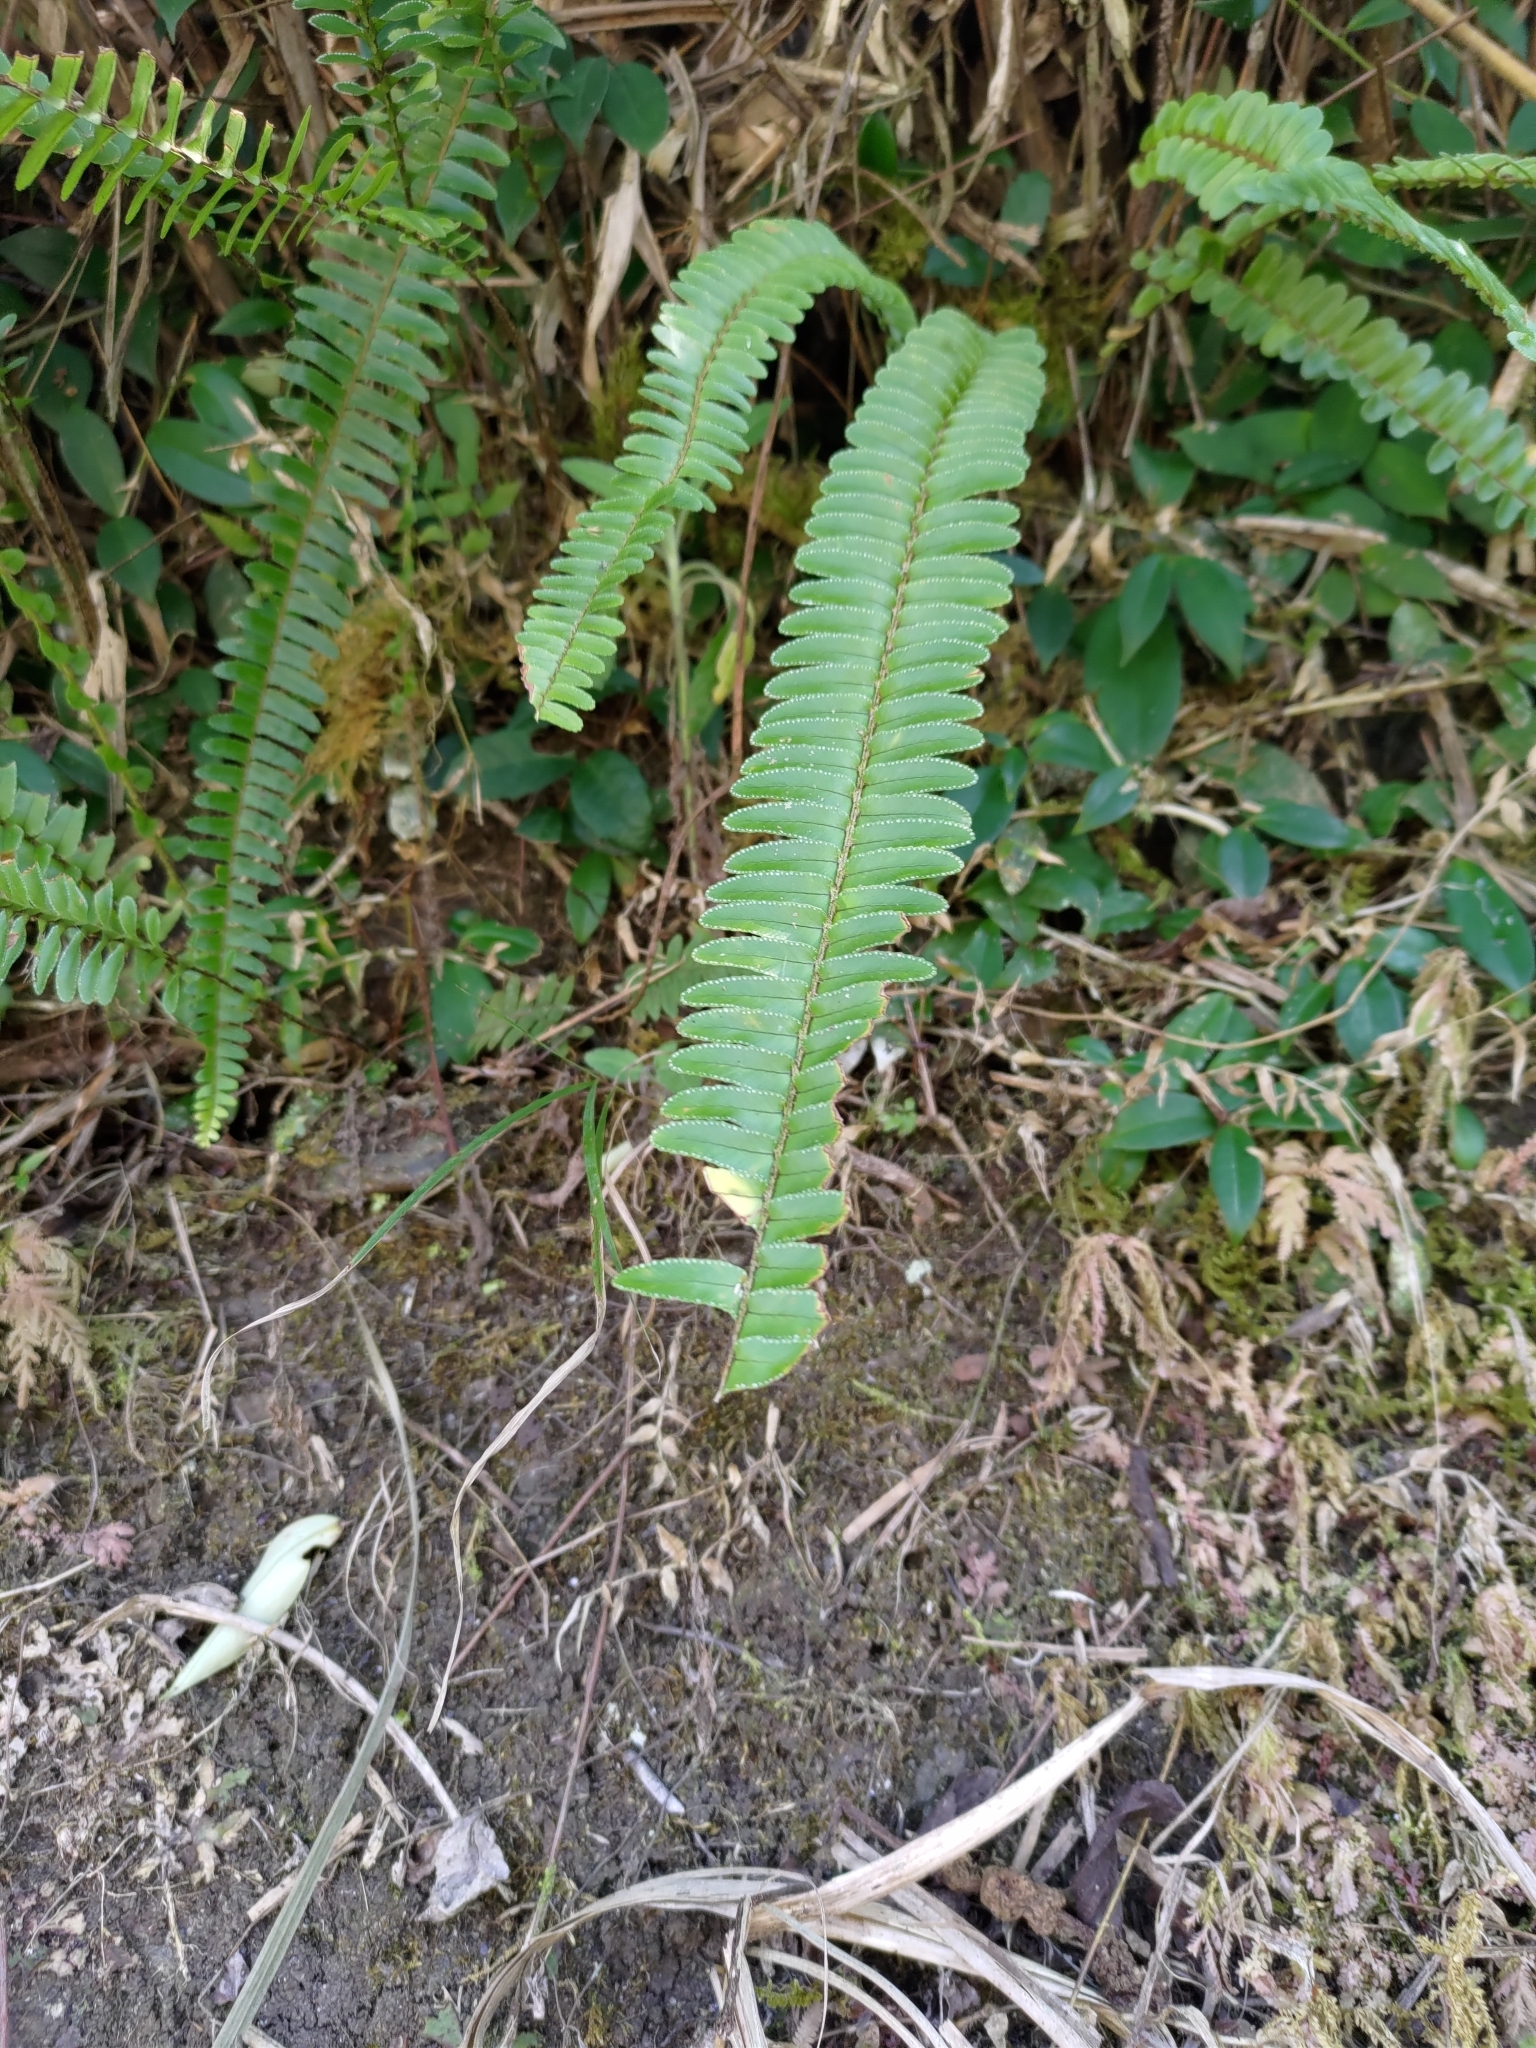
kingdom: Plantae
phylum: Tracheophyta
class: Polypodiopsida
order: Polypodiales
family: Nephrolepidaceae
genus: Nephrolepis
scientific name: Nephrolepis cordifolia
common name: Narrow swordfern
